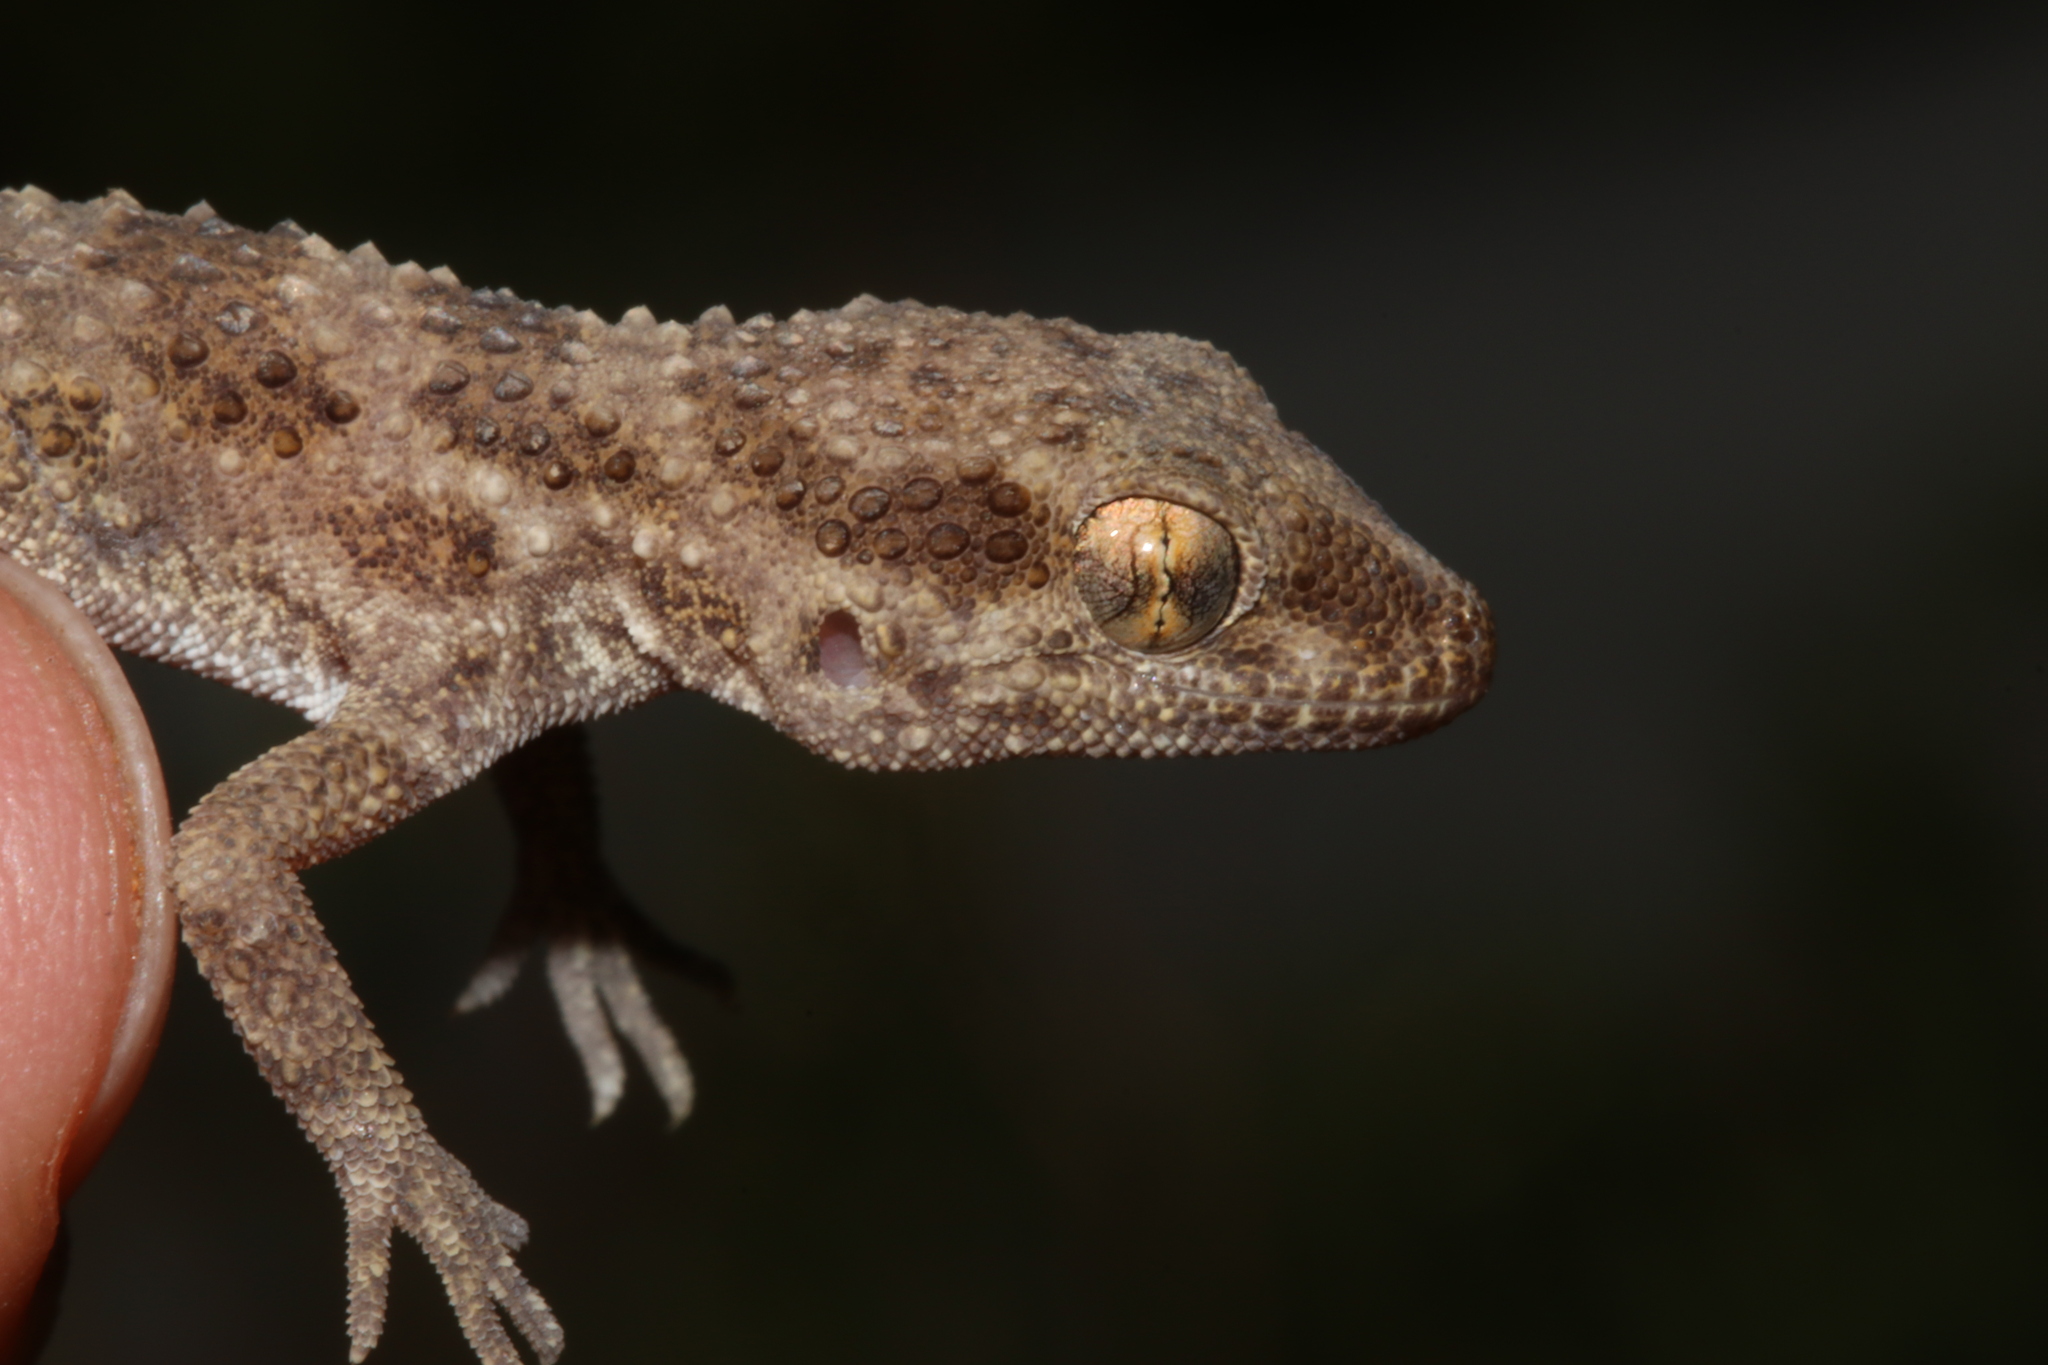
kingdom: Animalia
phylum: Chordata
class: Squamata
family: Gekkonidae
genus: Bunopus
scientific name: Bunopus tuberculatus
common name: Southern tuberculated gecko
